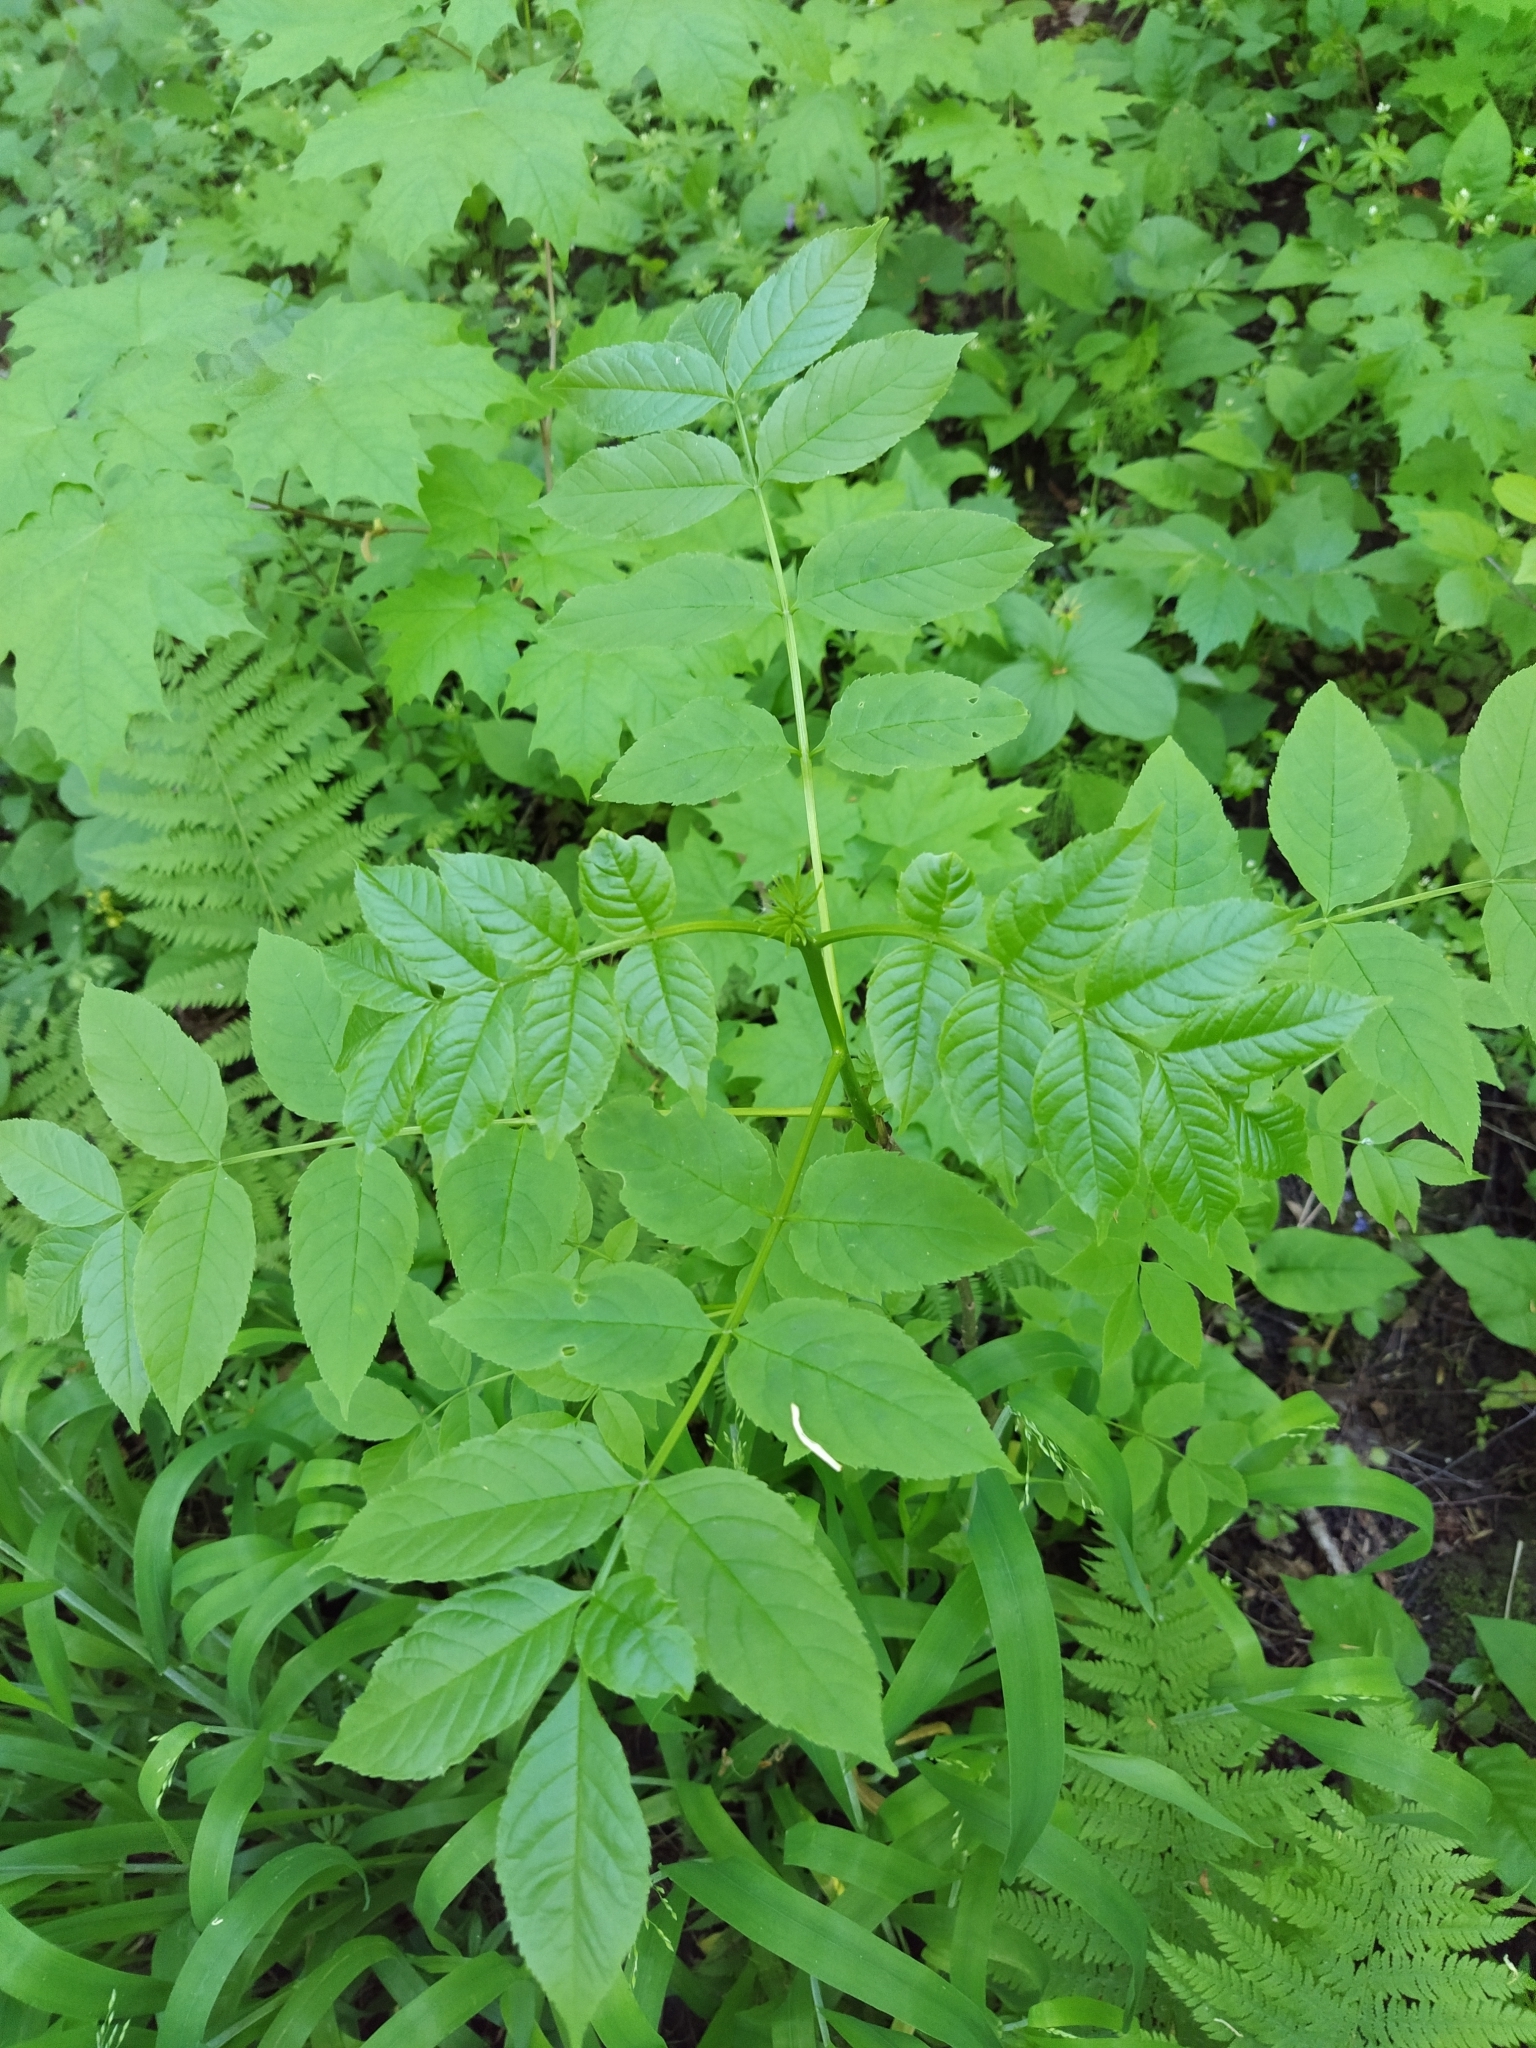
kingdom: Plantae
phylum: Tracheophyta
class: Magnoliopsida
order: Lamiales
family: Oleaceae
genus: Fraxinus
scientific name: Fraxinus excelsior
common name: European ash
